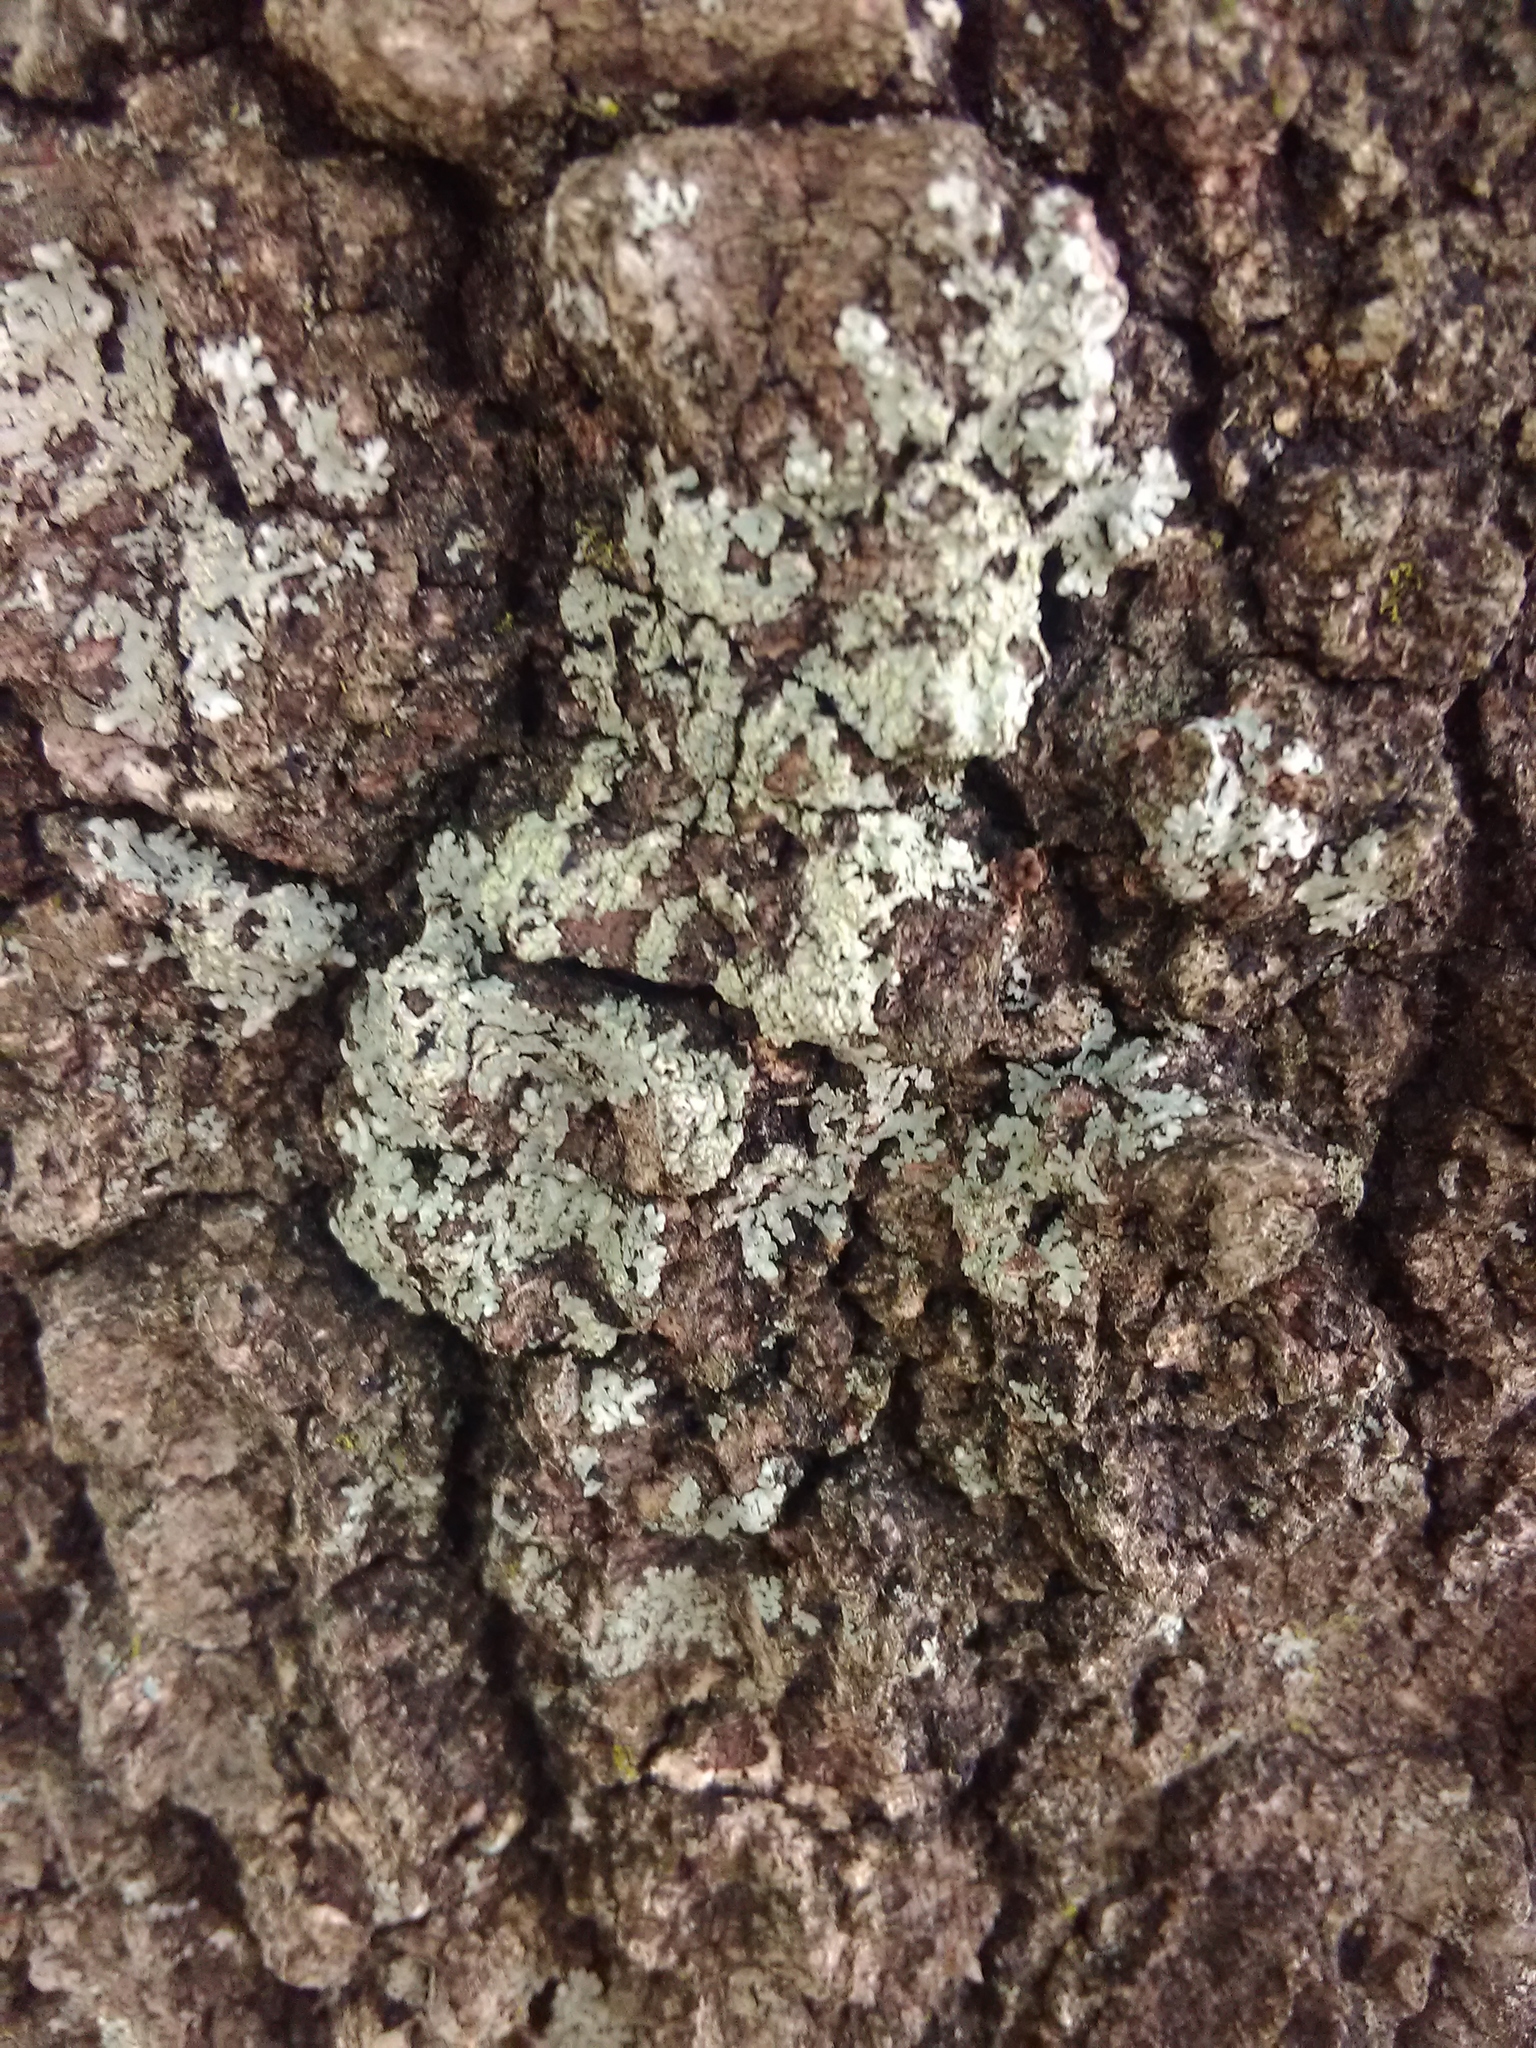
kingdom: Fungi
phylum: Ascomycota
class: Lecanoromycetes
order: Caliciales
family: Caliciaceae
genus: Pyxine
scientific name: Pyxine subcinerea
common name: Mustard lichen
